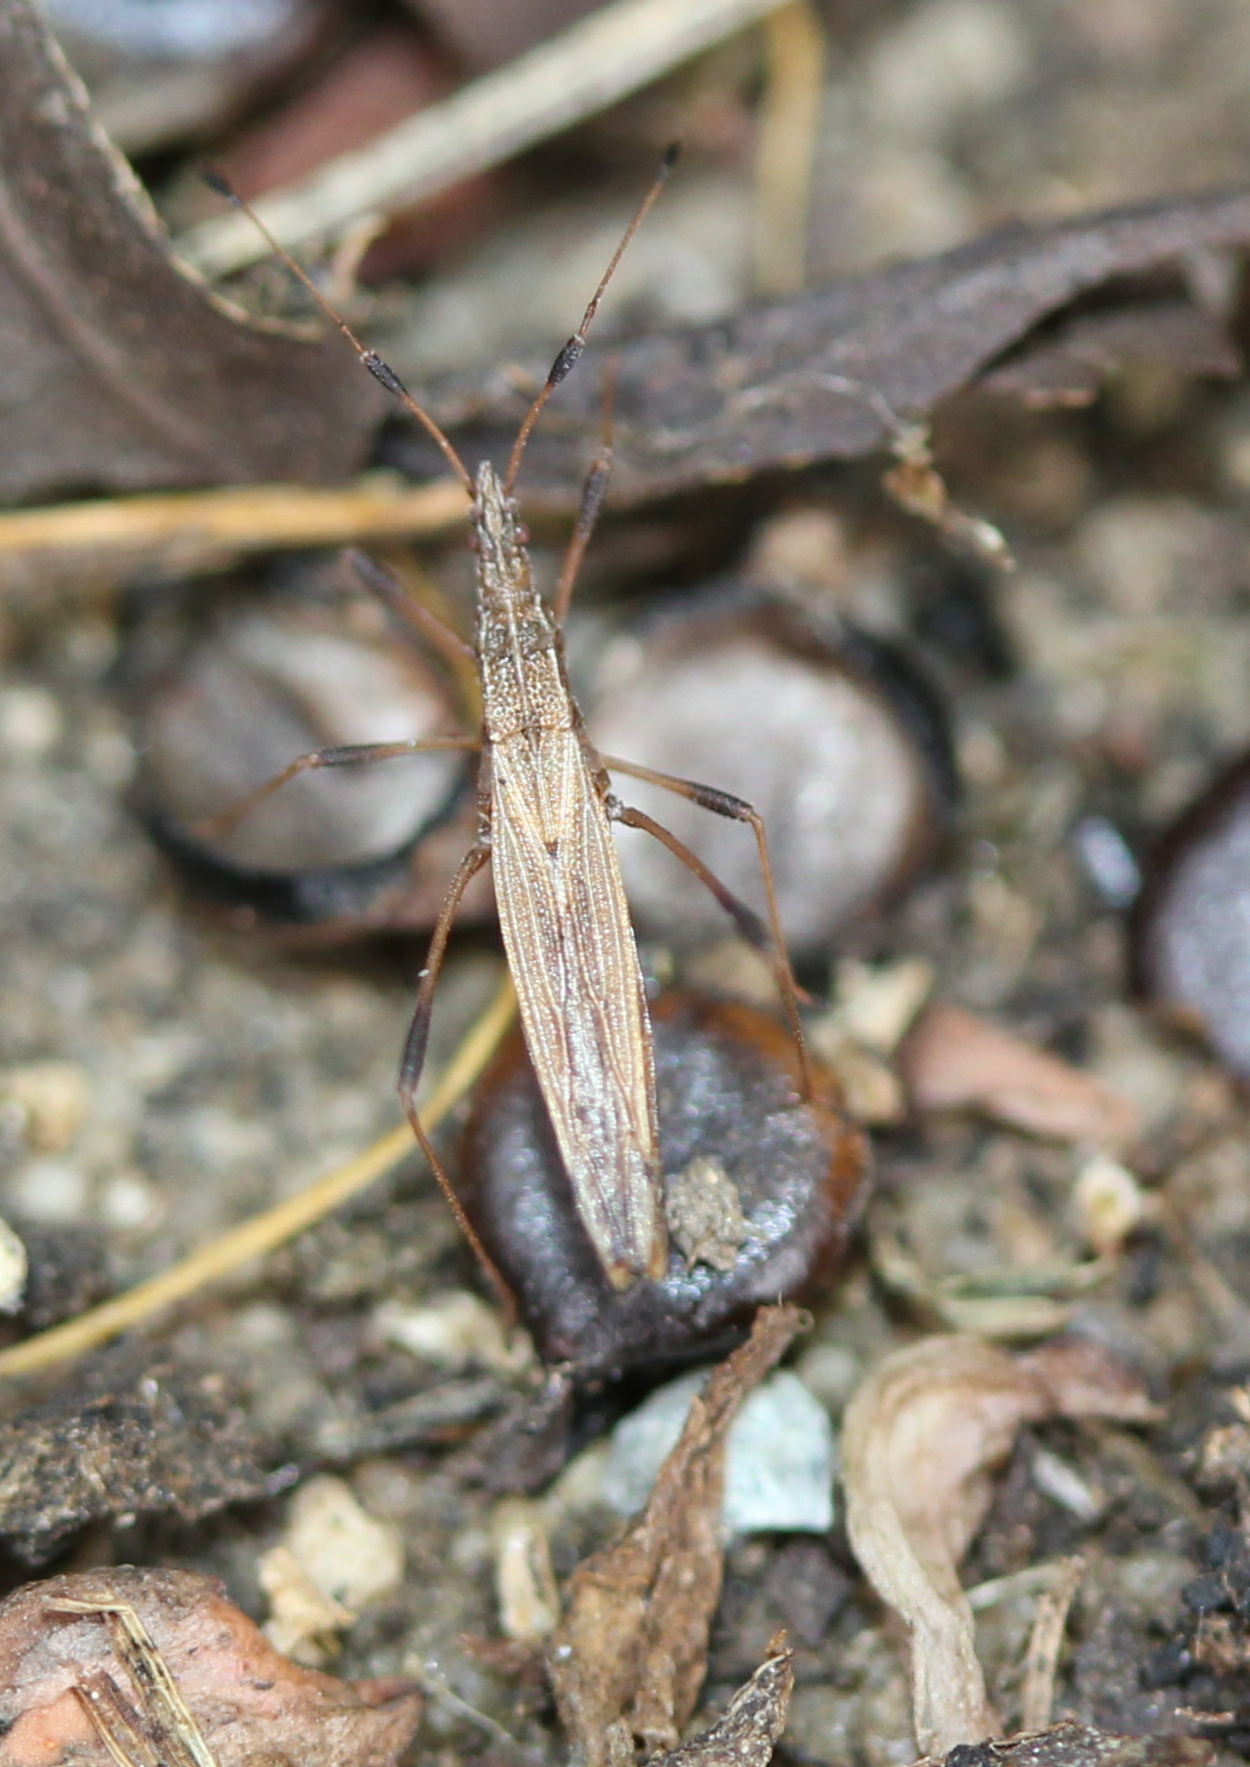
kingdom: Animalia
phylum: Arthropoda
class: Insecta
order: Hemiptera
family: Berytidae
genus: Berytinus
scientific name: Berytinus minor
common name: Stilt bug
